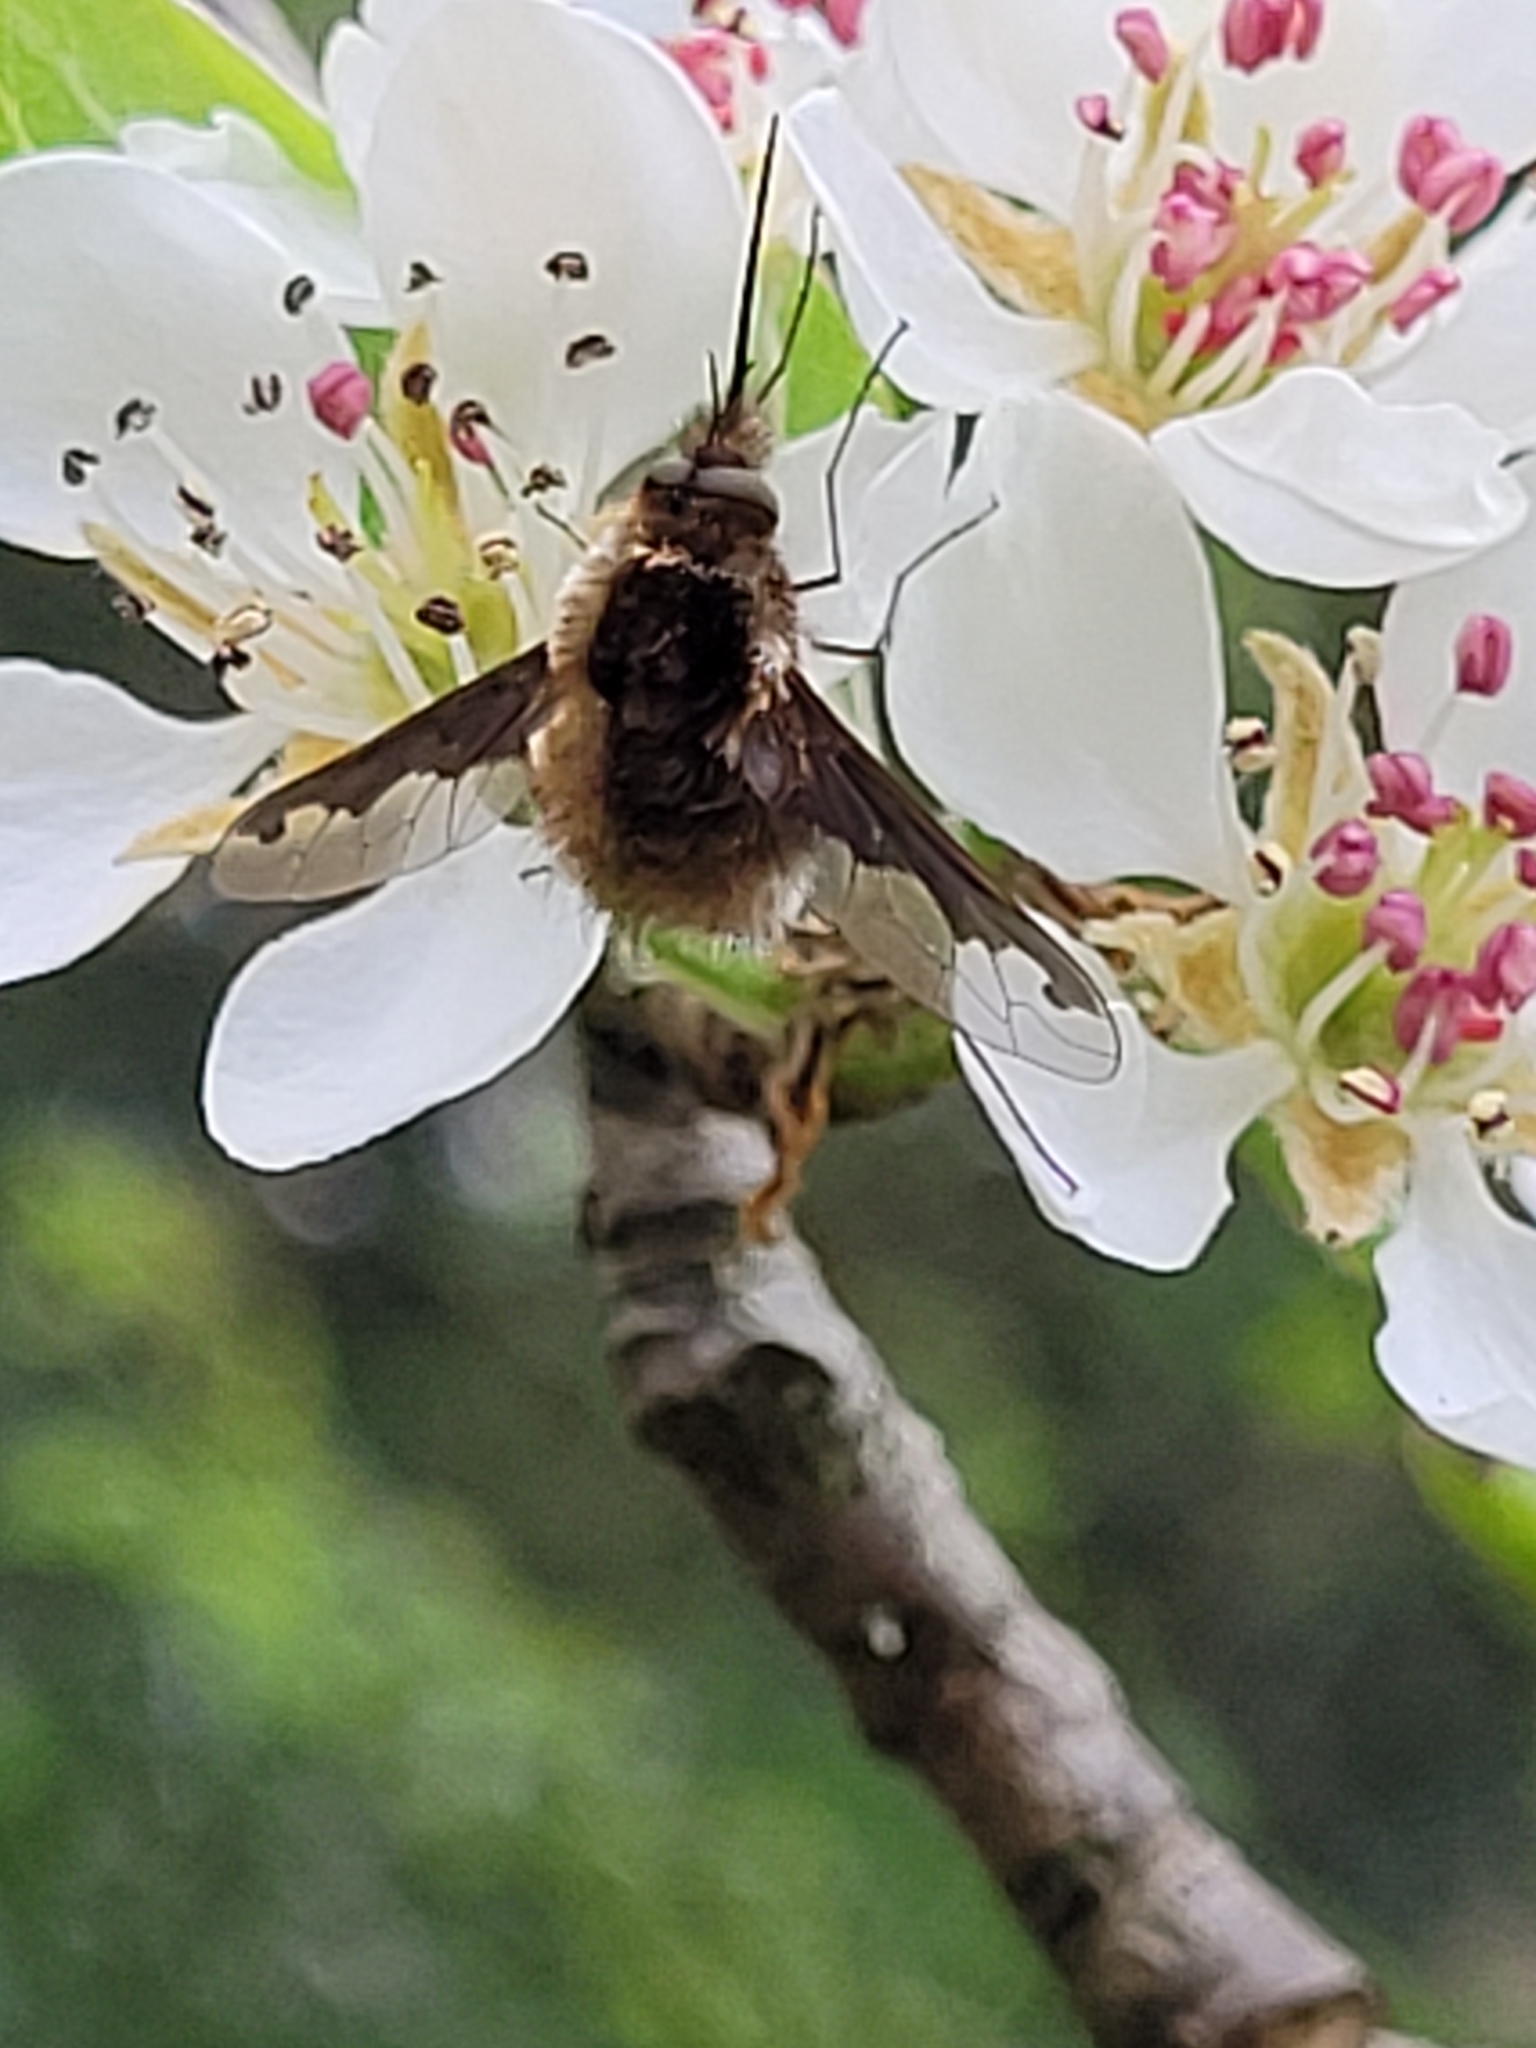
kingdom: Animalia
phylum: Arthropoda
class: Insecta
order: Diptera
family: Bombyliidae
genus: Bombylius
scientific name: Bombylius major
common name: Bee fly
